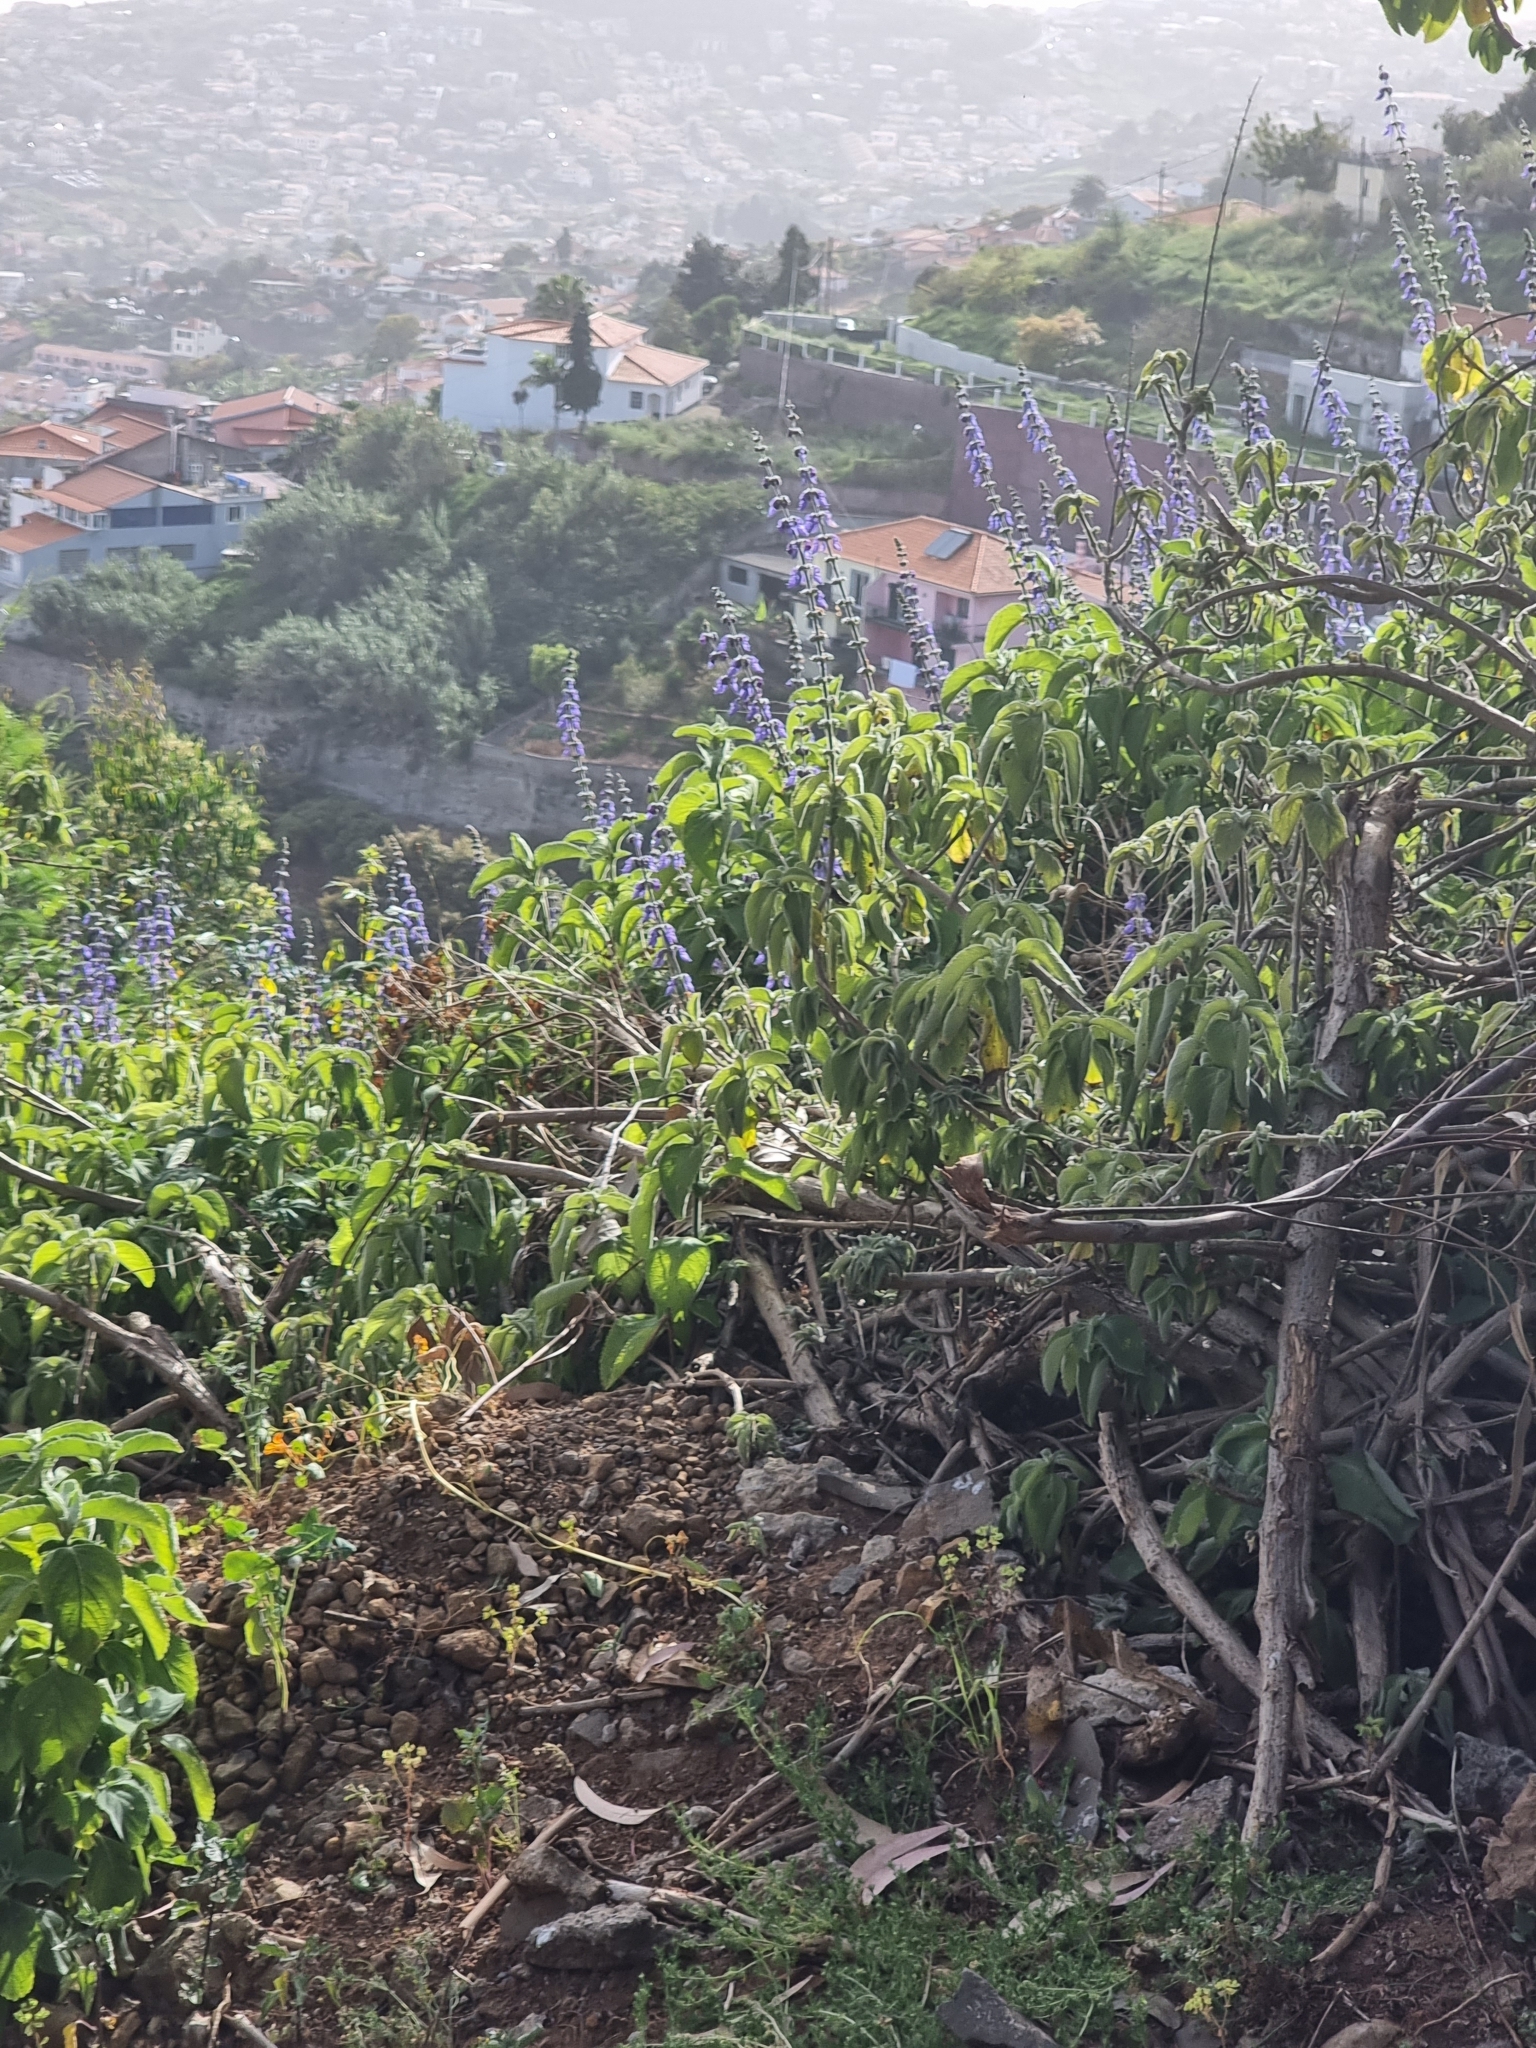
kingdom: Plantae
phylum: Tracheophyta
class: Magnoliopsida
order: Lamiales
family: Lamiaceae
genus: Coleus
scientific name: Coleus barbatus
